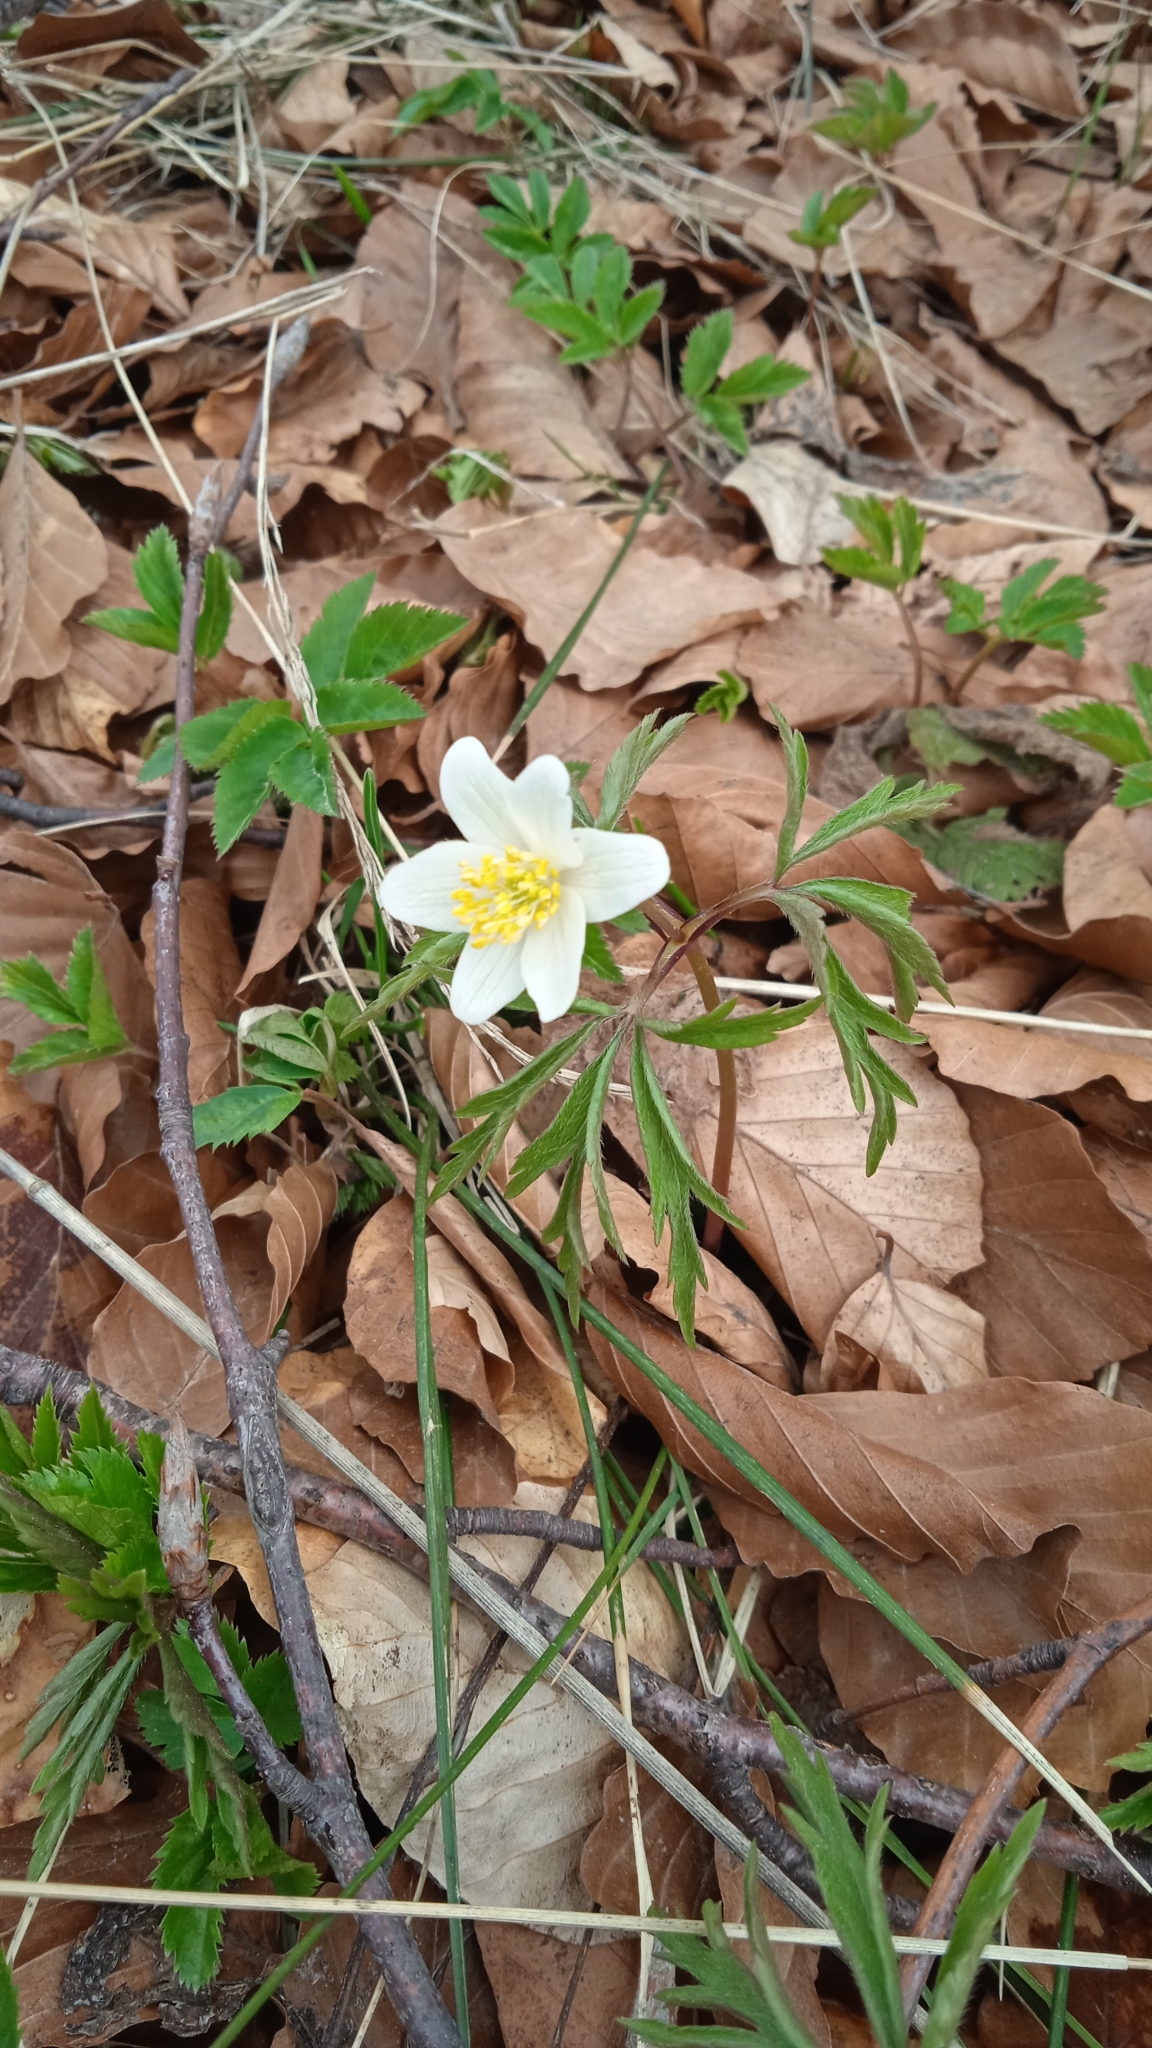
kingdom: Plantae
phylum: Tracheophyta
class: Magnoliopsida
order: Ranunculales
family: Ranunculaceae
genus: Anemone
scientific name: Anemone nemorosa
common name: Wood anemone
